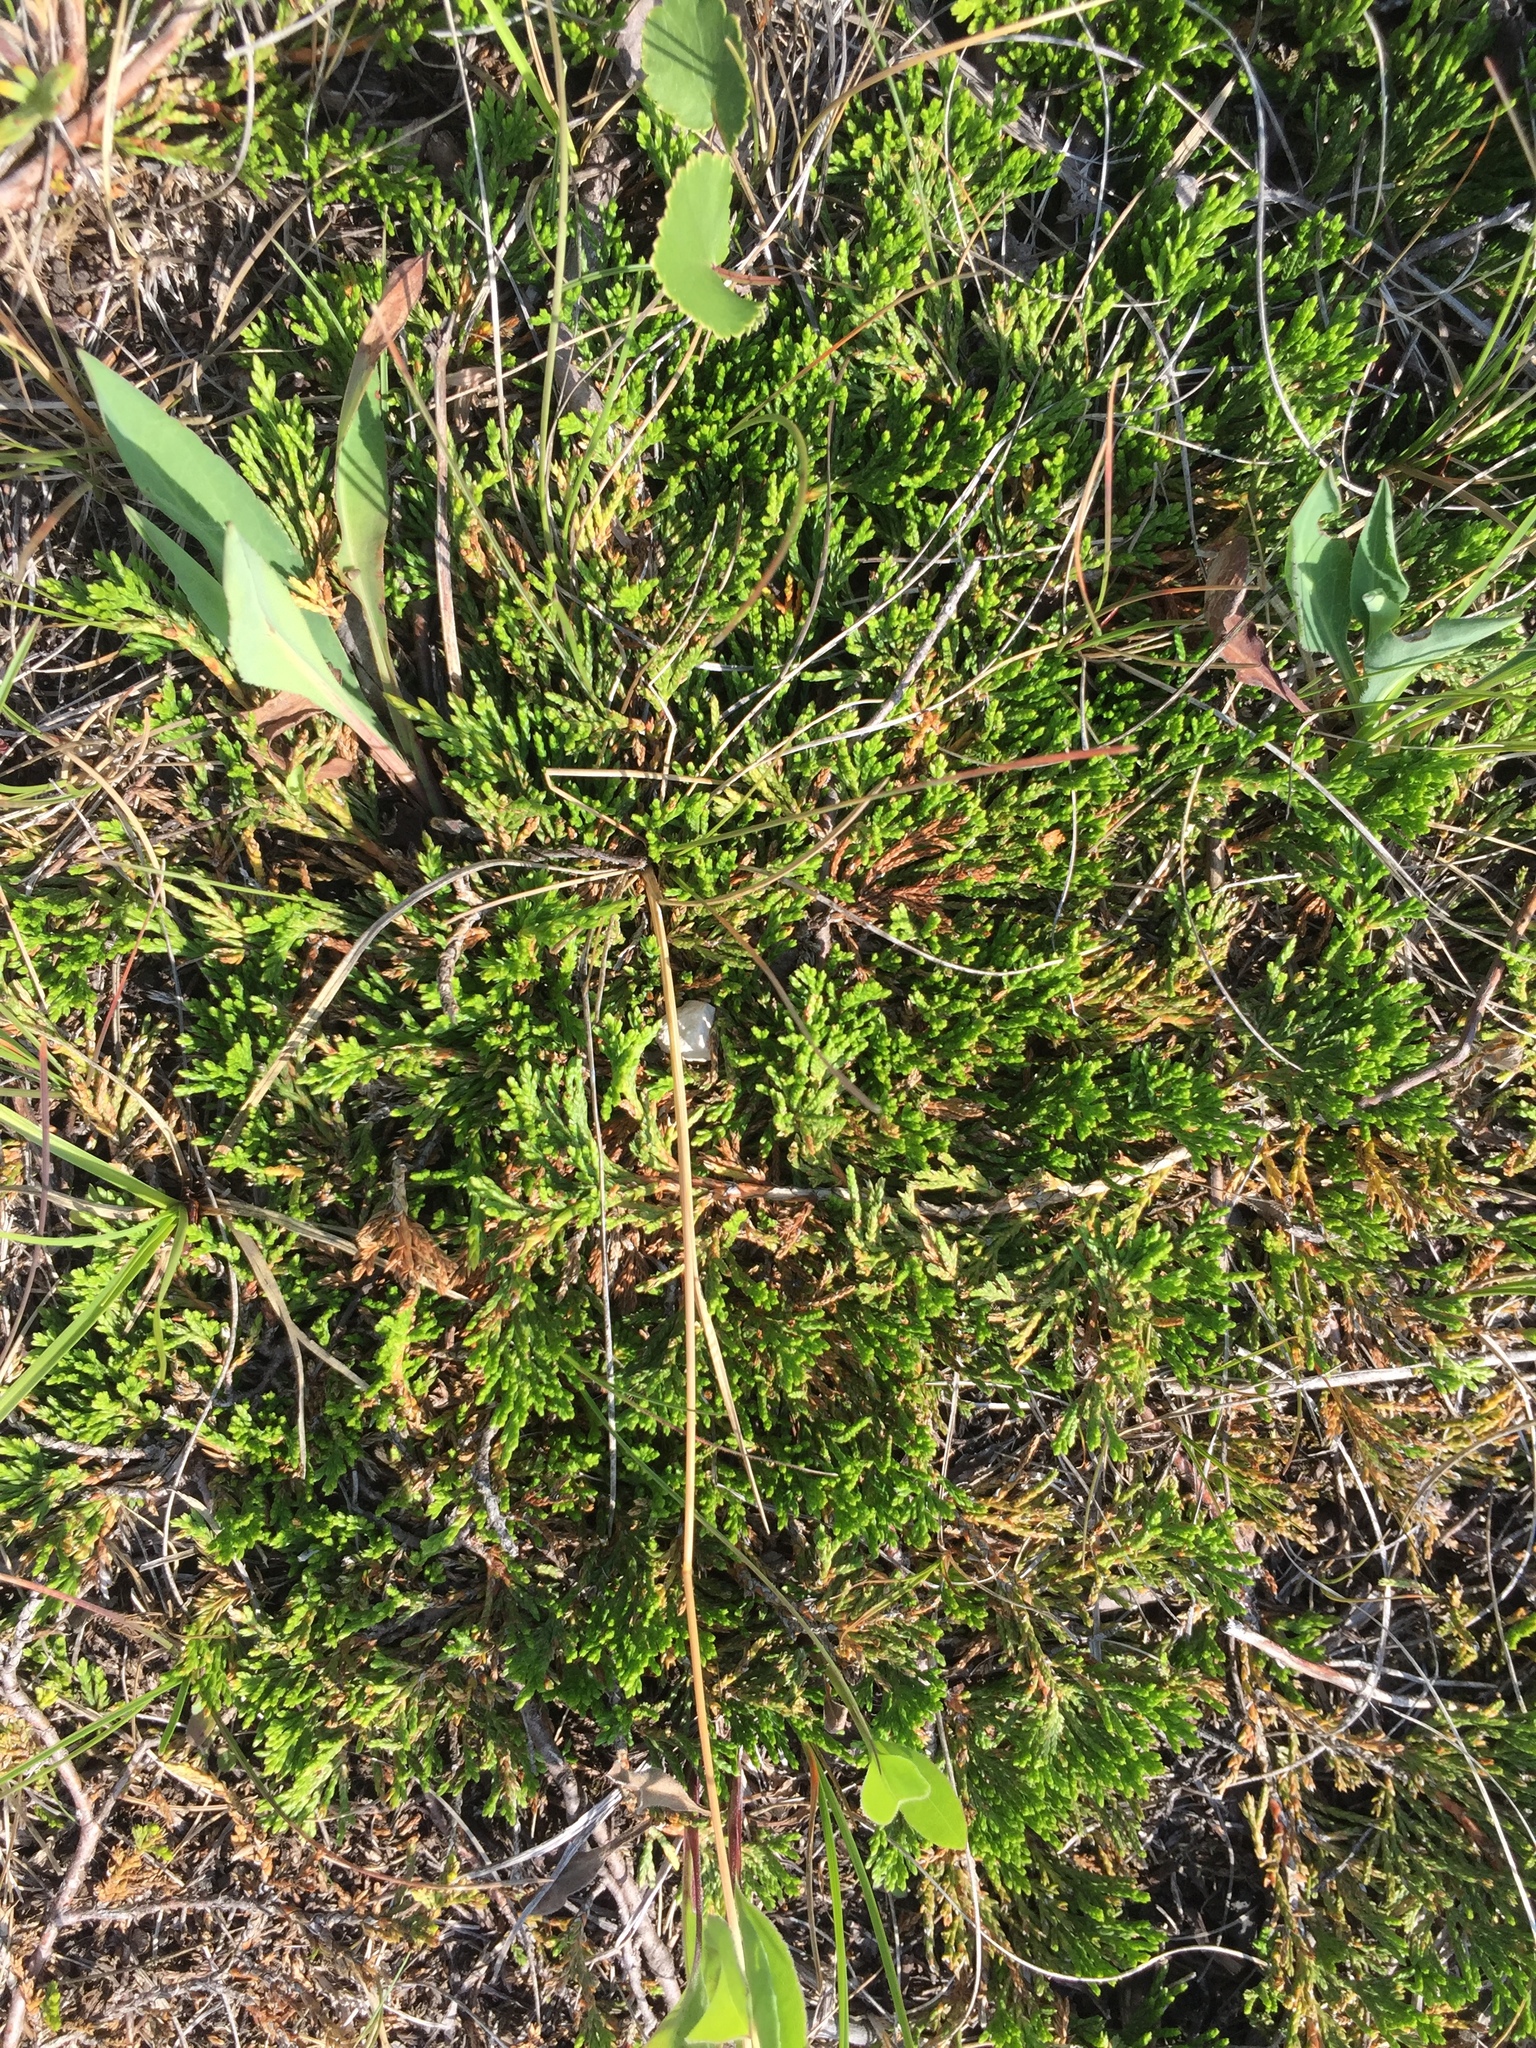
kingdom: Plantae
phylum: Tracheophyta
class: Pinopsida
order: Pinales
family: Cupressaceae
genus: Juniperus
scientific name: Juniperus horizontalis
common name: Creeping juniper
